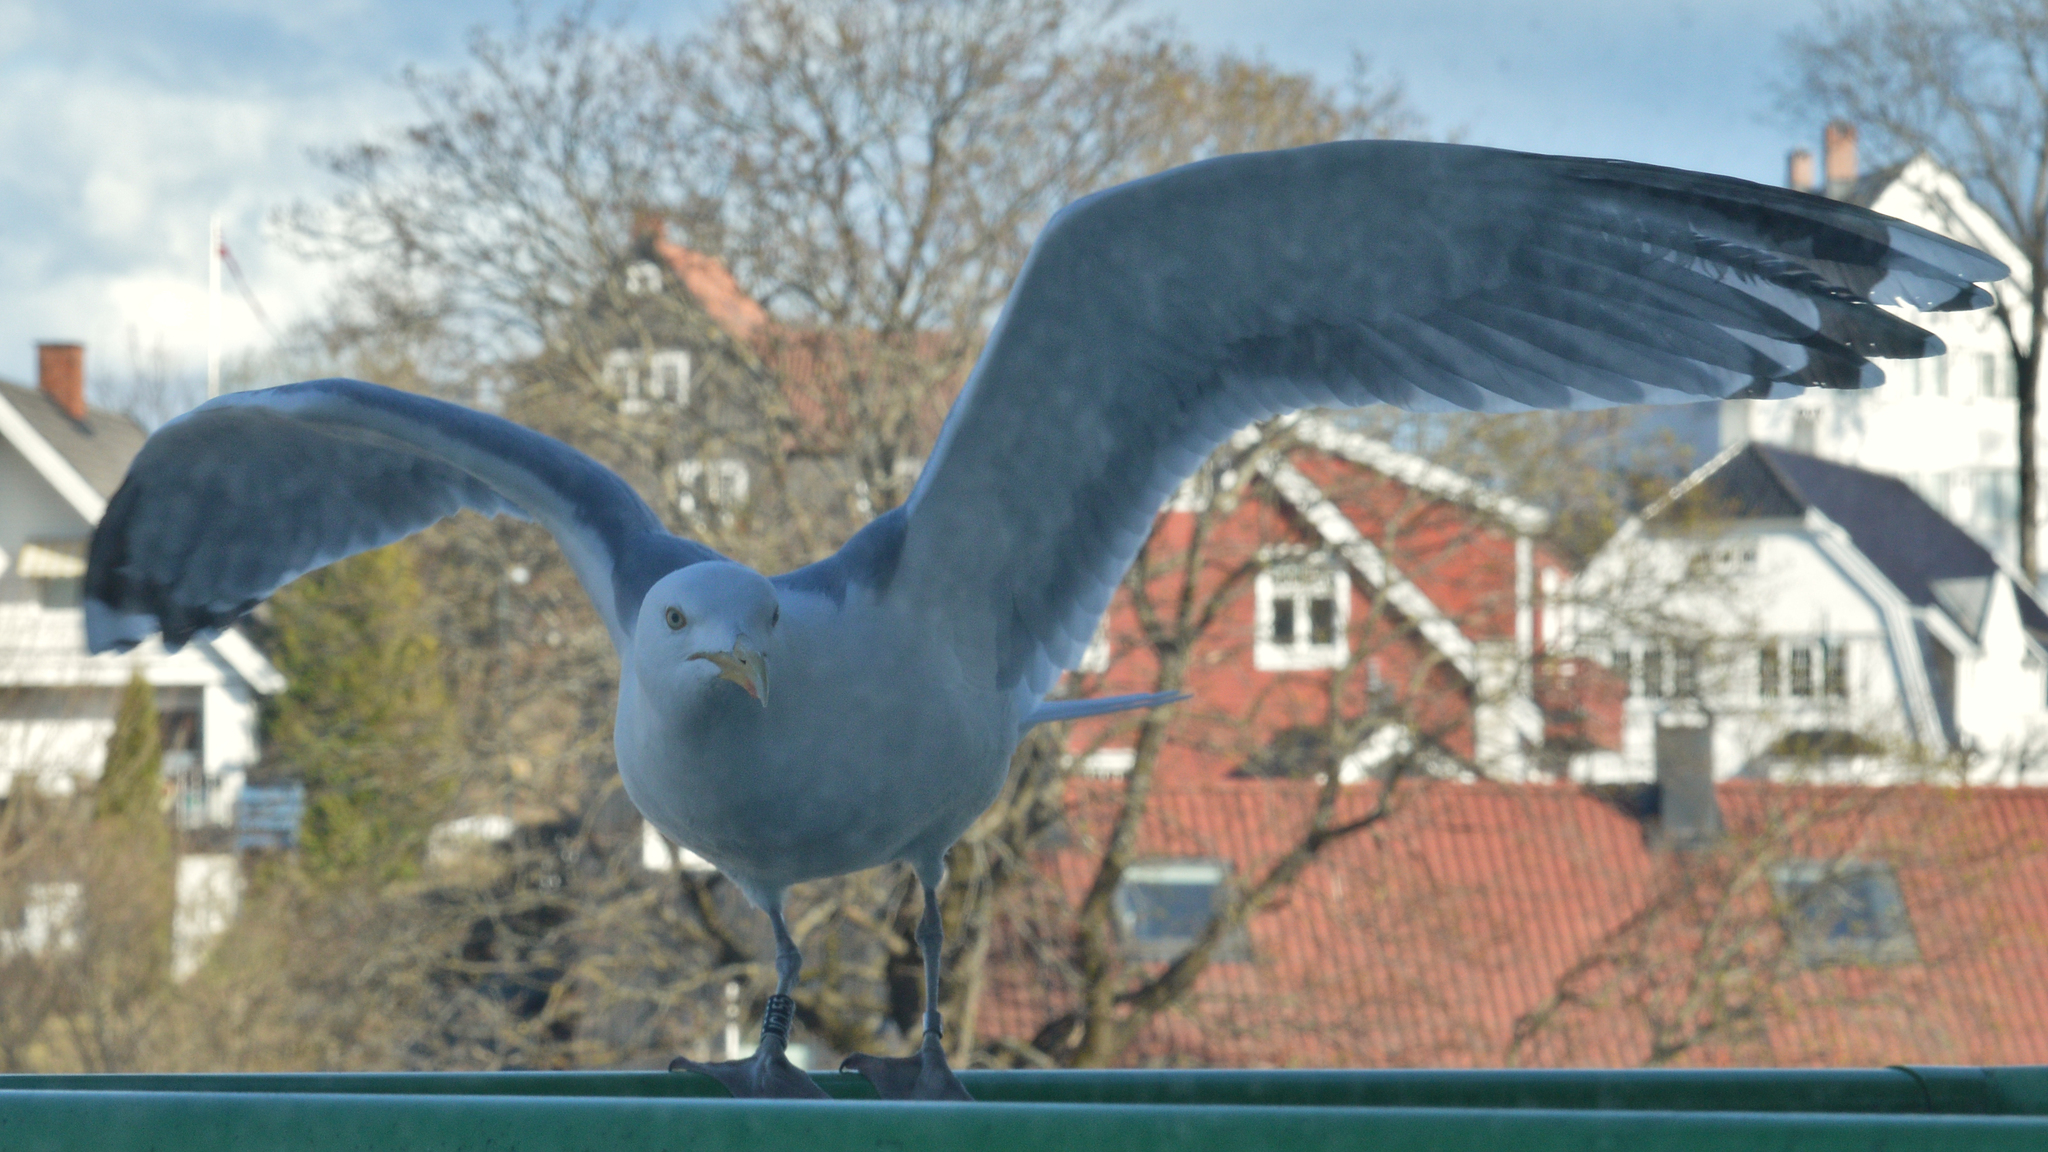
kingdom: Animalia
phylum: Chordata
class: Aves
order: Charadriiformes
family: Laridae
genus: Larus
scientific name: Larus argentatus
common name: Herring gull
